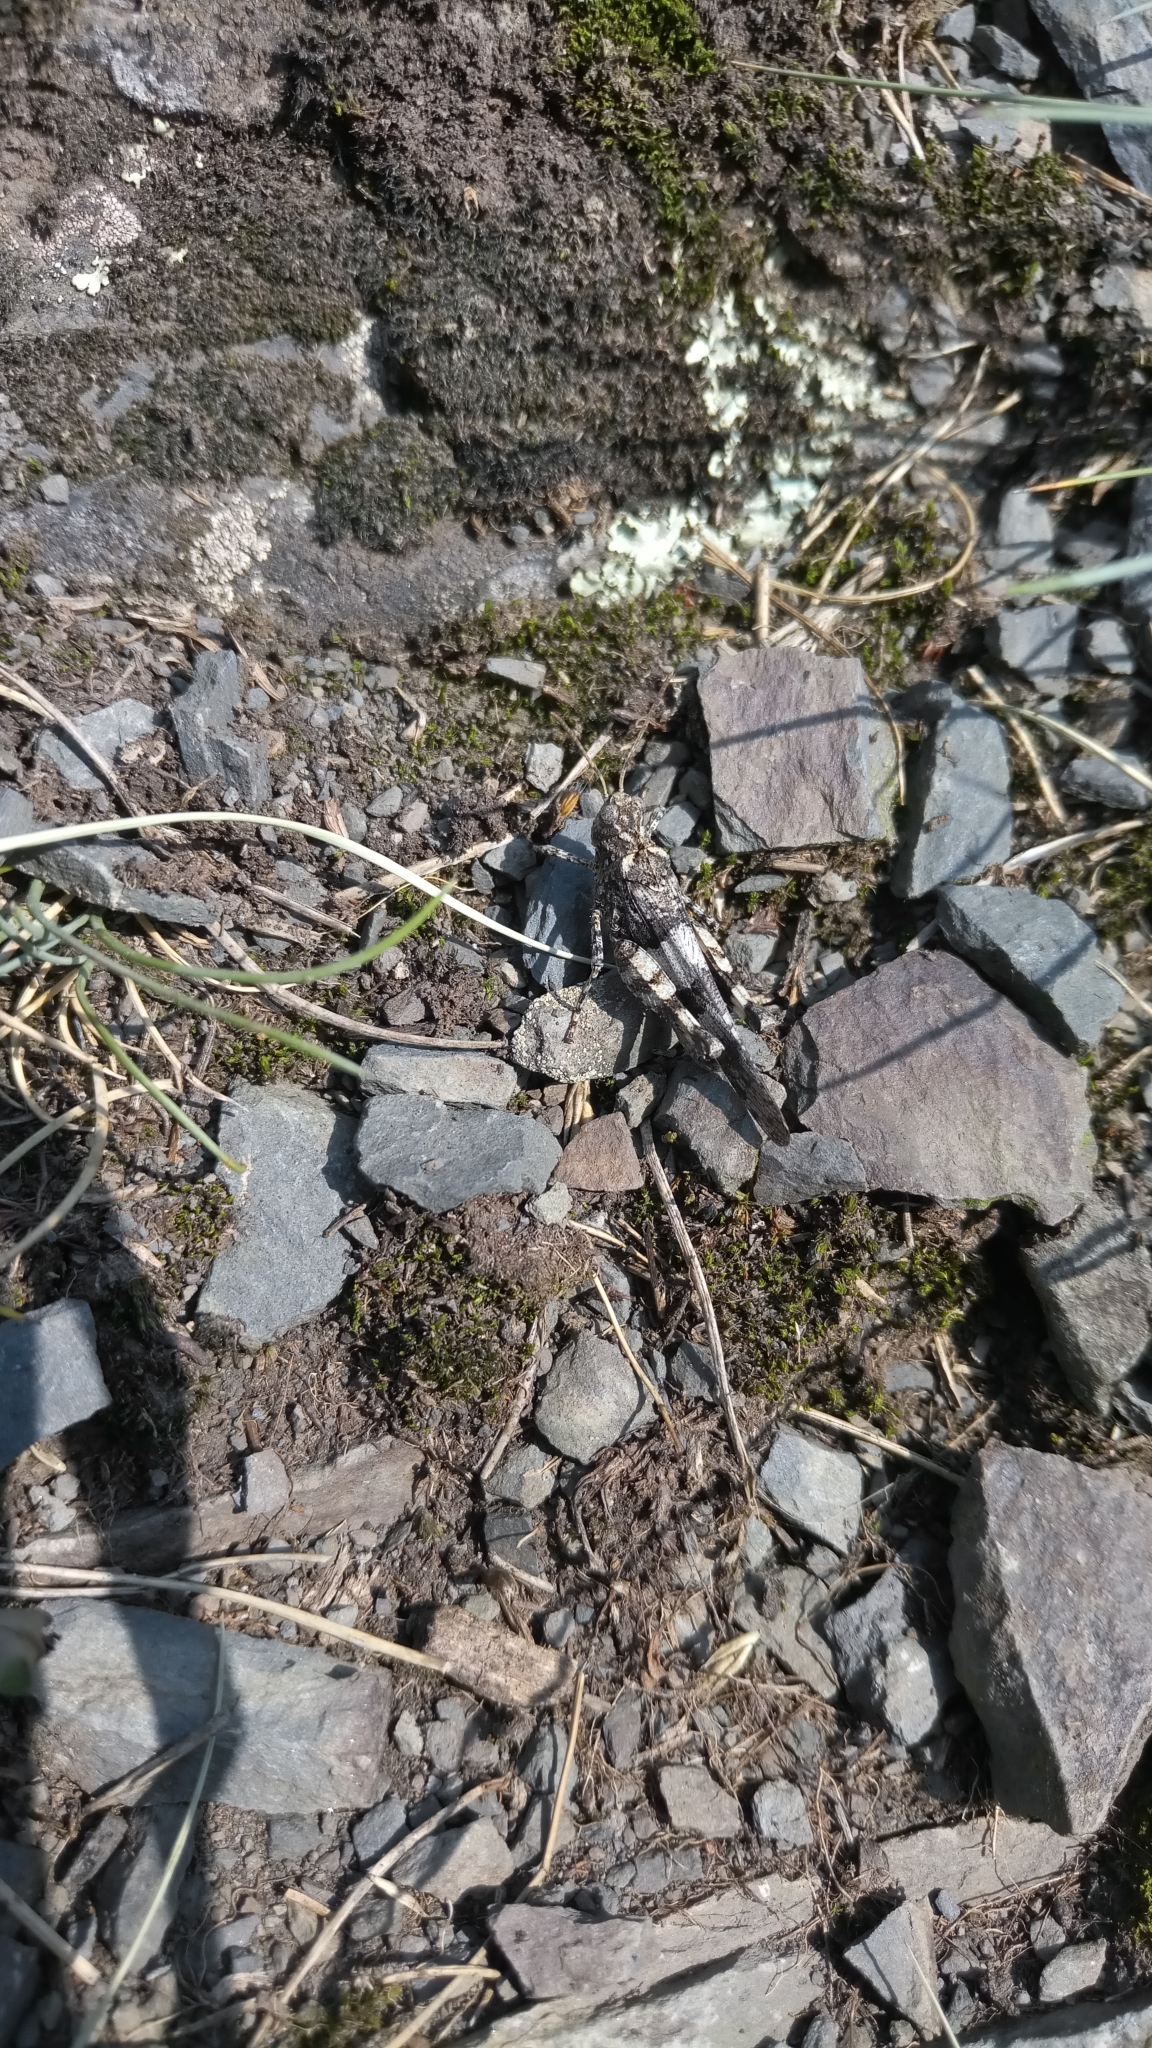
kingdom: Animalia
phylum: Arthropoda
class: Insecta
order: Orthoptera
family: Acrididae
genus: Oedipoda
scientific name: Oedipoda caerulescens
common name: Blue-winged grasshopper
